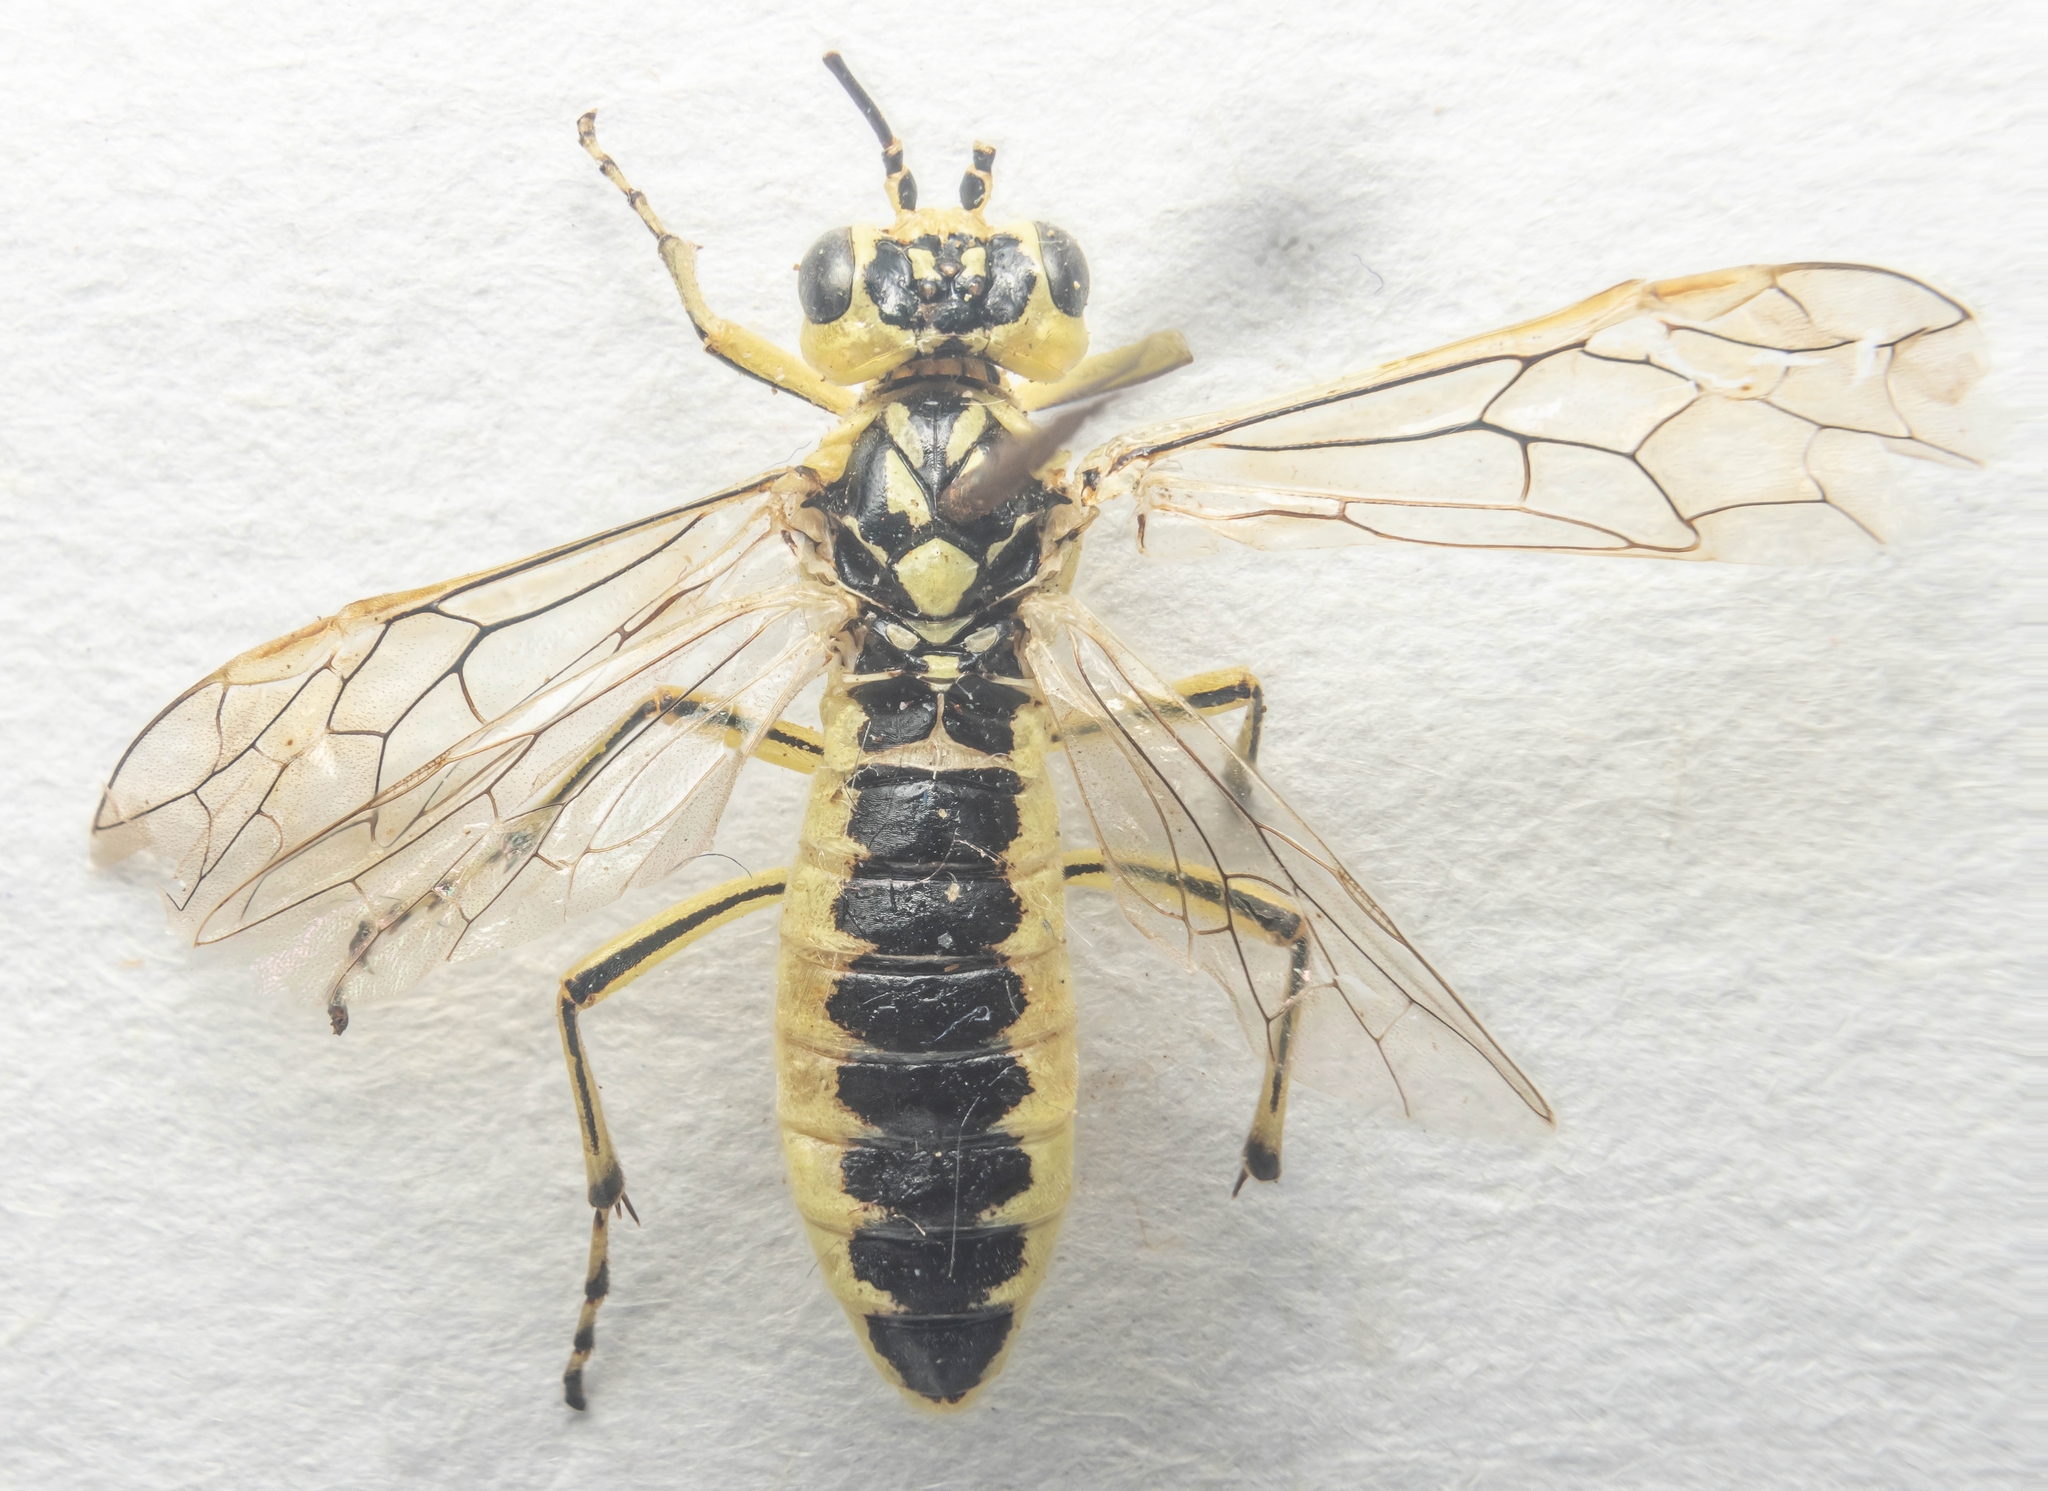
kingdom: Animalia
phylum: Arthropoda
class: Insecta
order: Hymenoptera
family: Tenthredinidae
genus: Rhogogaster
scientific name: Rhogogaster scalaris
